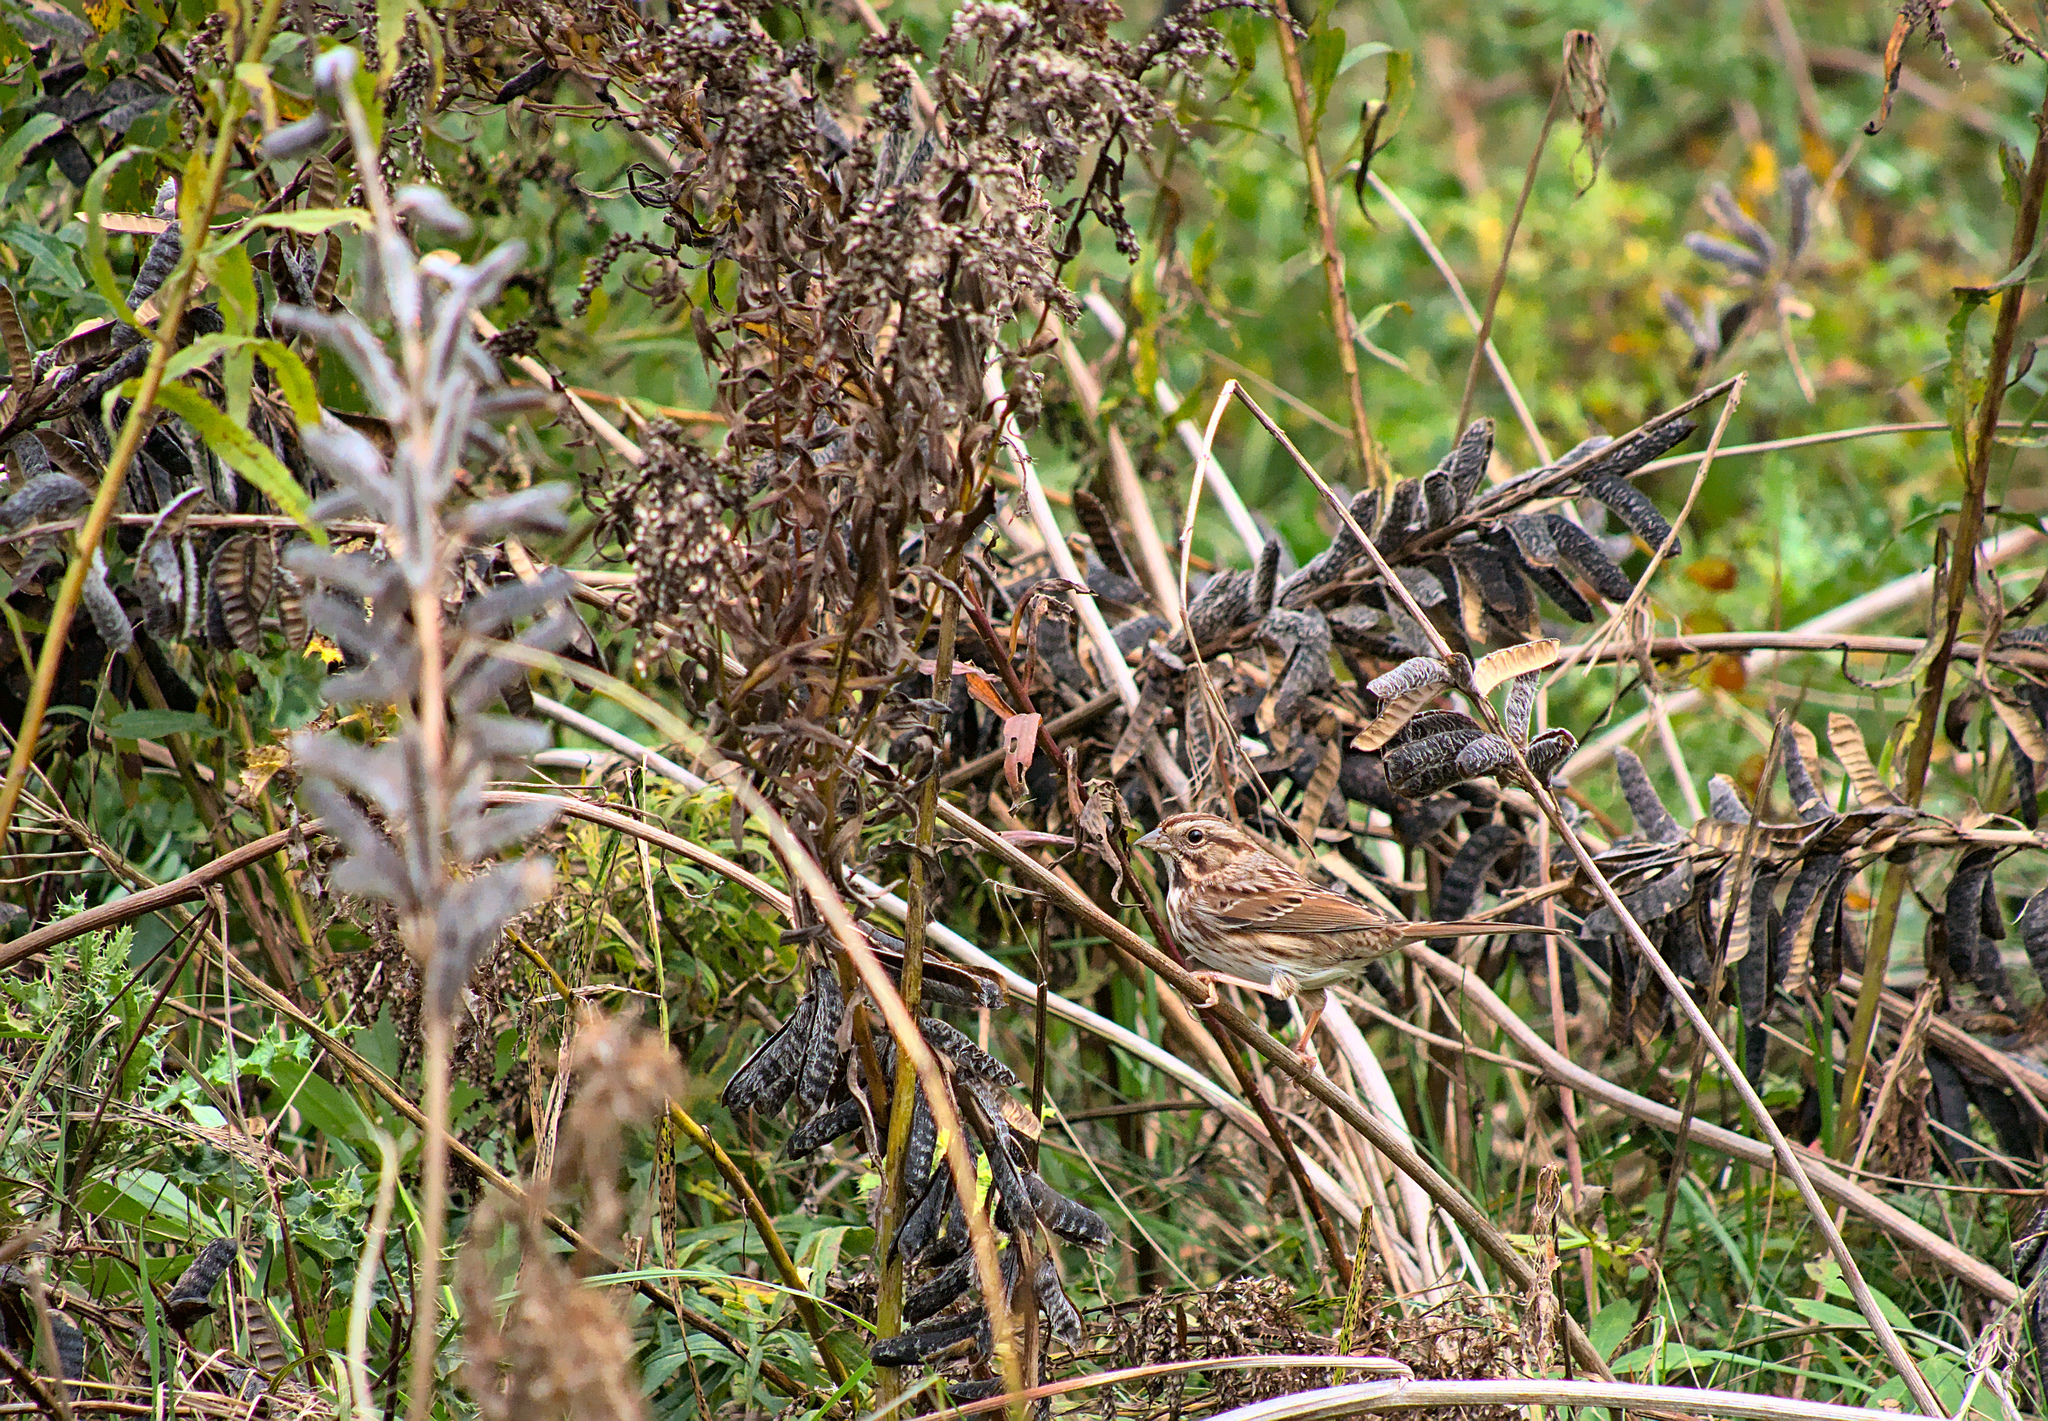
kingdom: Animalia
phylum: Chordata
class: Aves
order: Passeriformes
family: Passerellidae
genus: Melospiza
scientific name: Melospiza melodia
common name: Song sparrow
